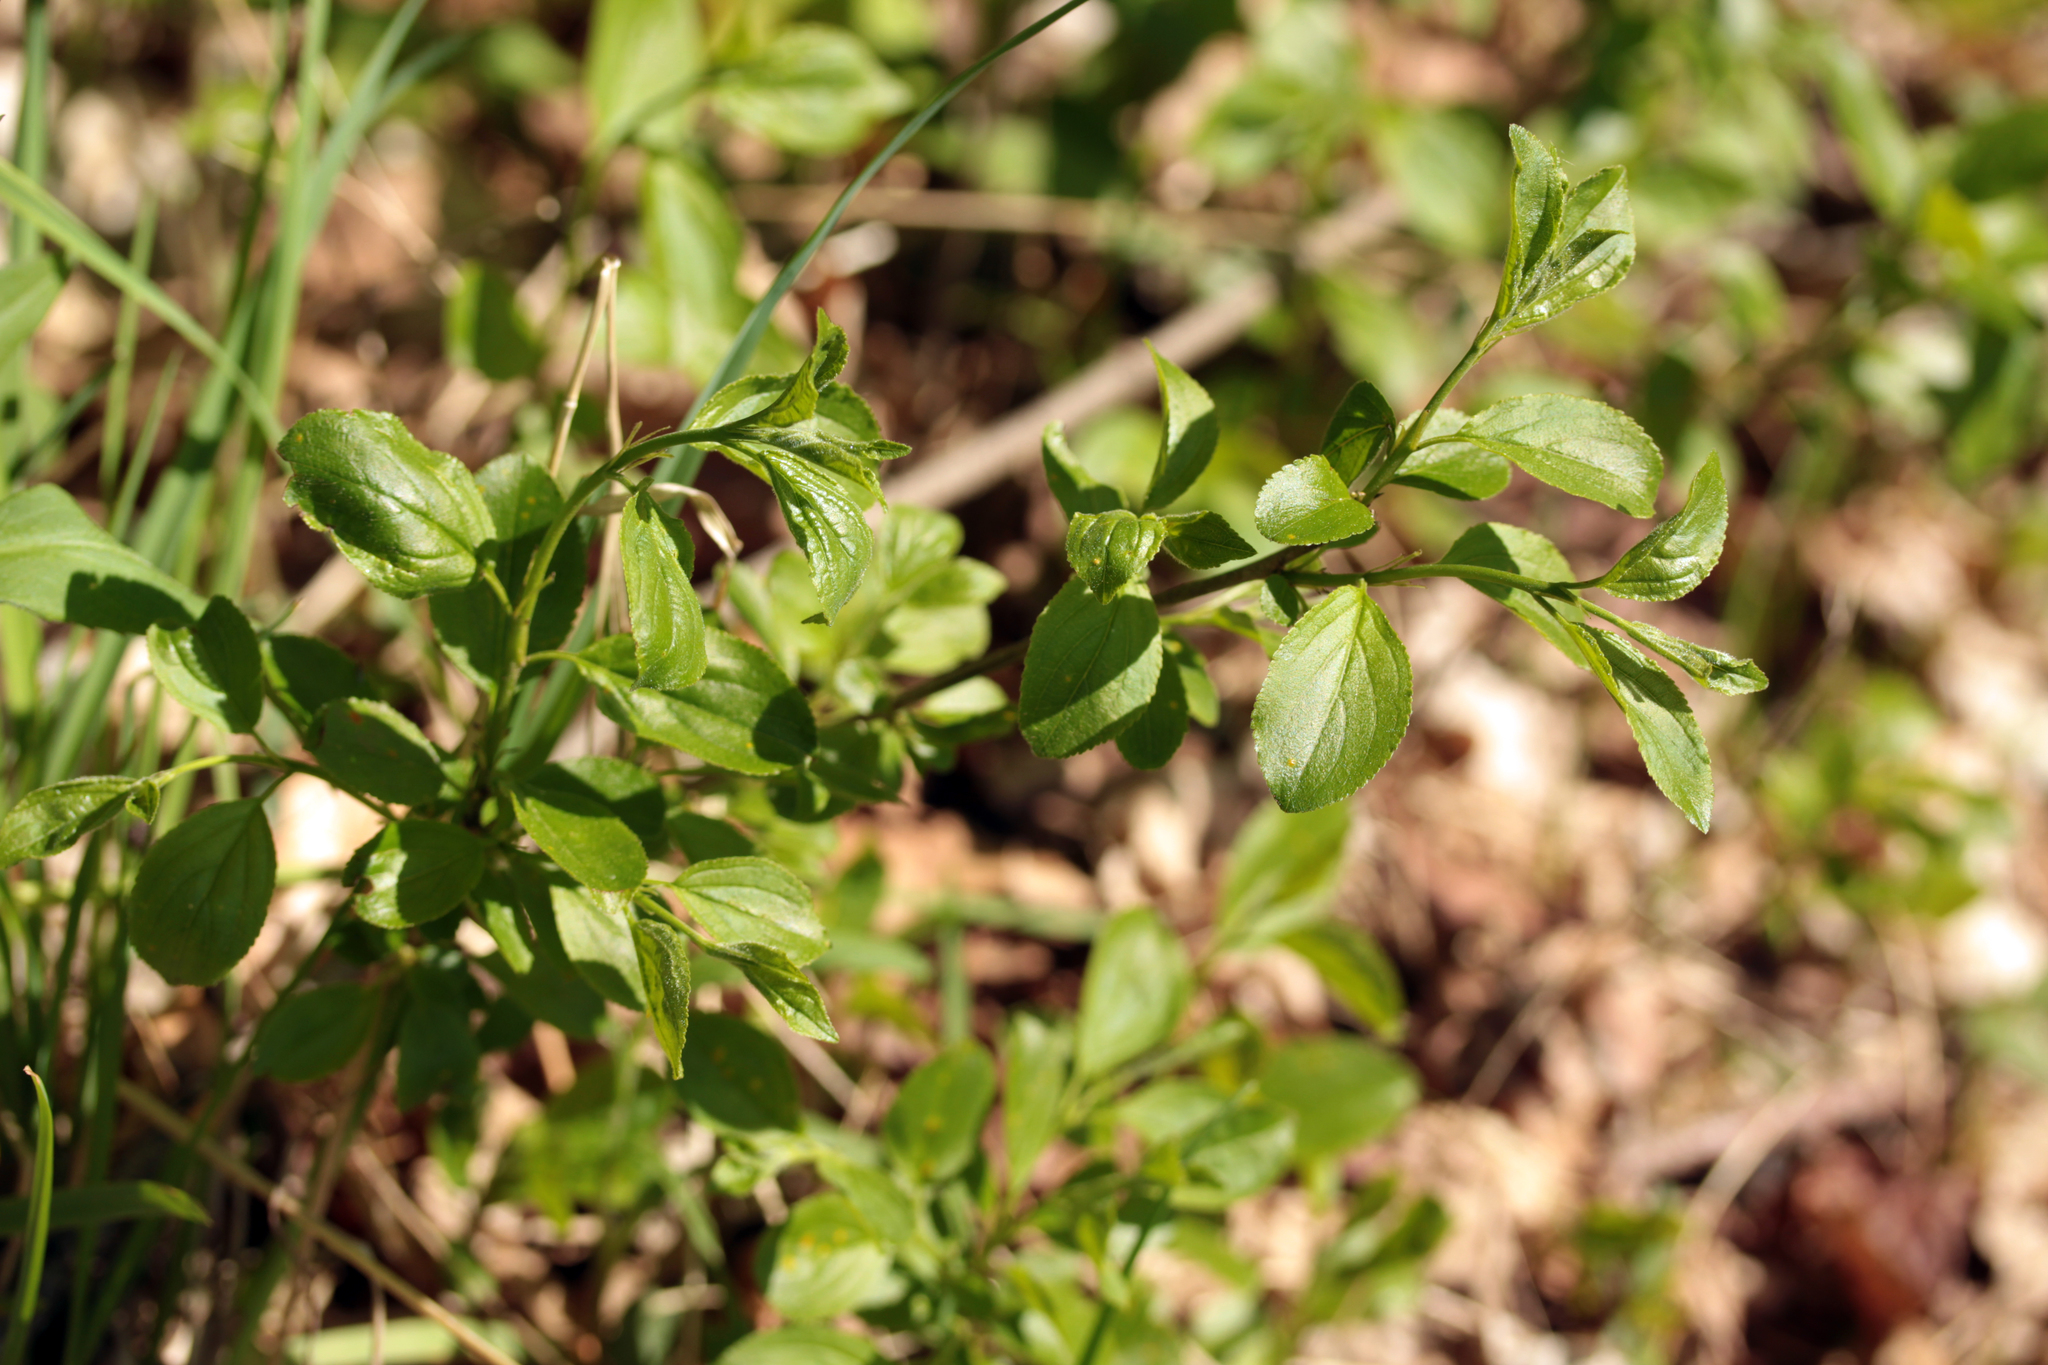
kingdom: Plantae
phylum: Tracheophyta
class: Magnoliopsida
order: Rosales
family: Rhamnaceae
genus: Rhamnus
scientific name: Rhamnus cathartica
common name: Common buckthorn
